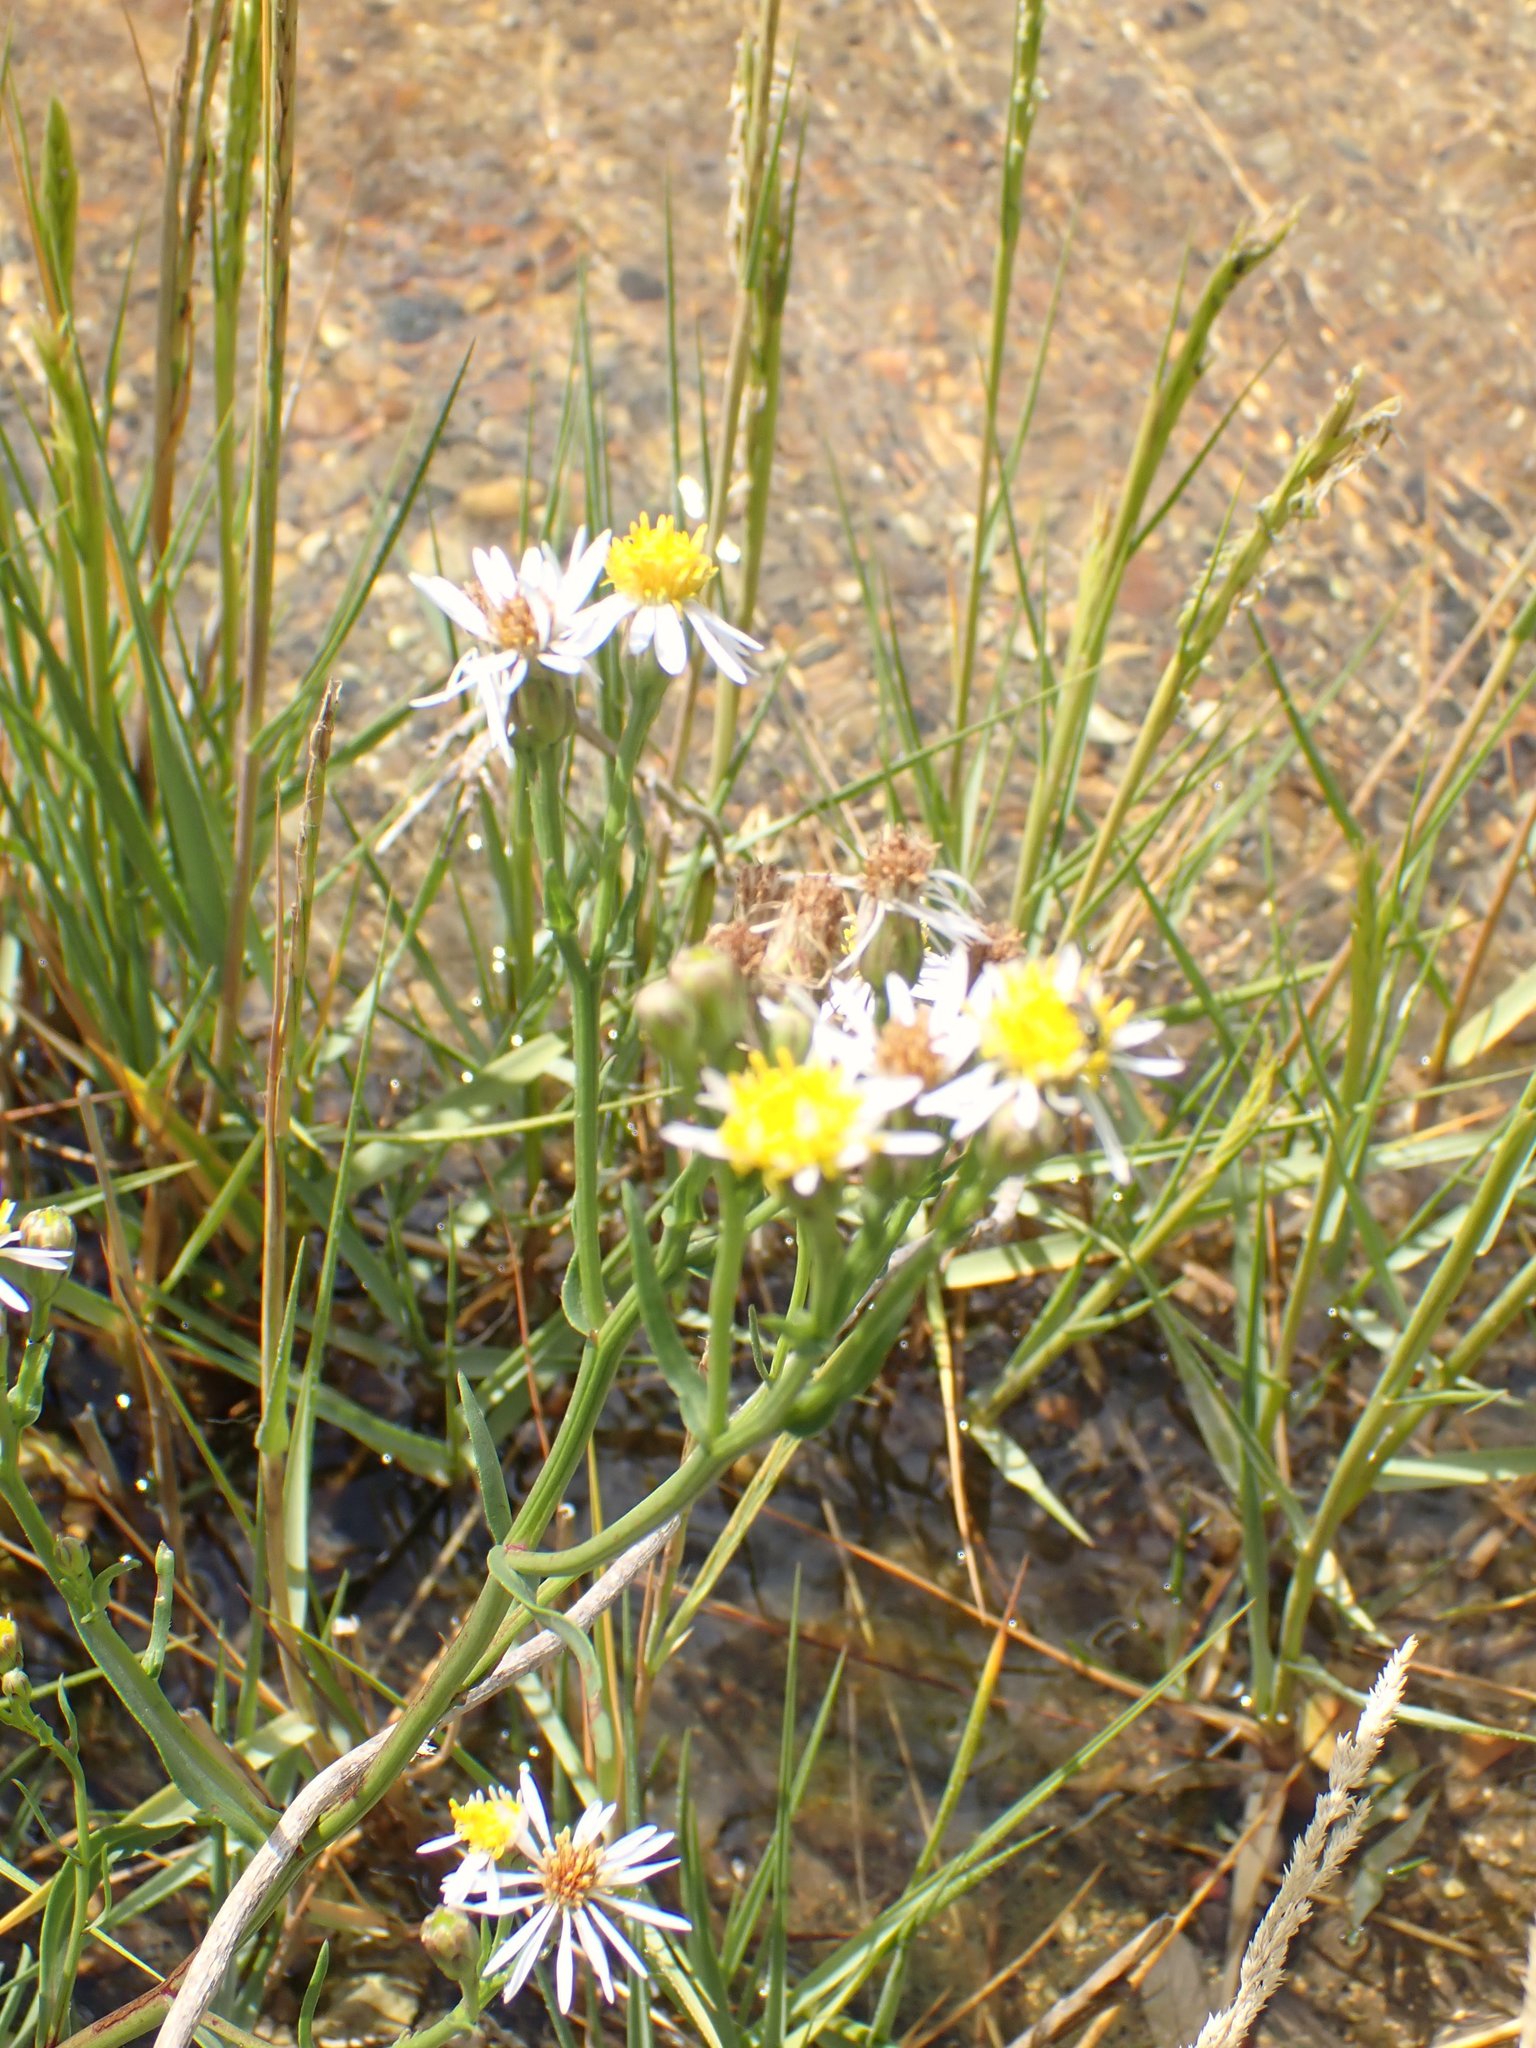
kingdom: Plantae
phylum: Tracheophyta
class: Magnoliopsida
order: Asterales
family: Asteraceae
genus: Tripolium
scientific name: Tripolium pannonicum
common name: Sea aster
